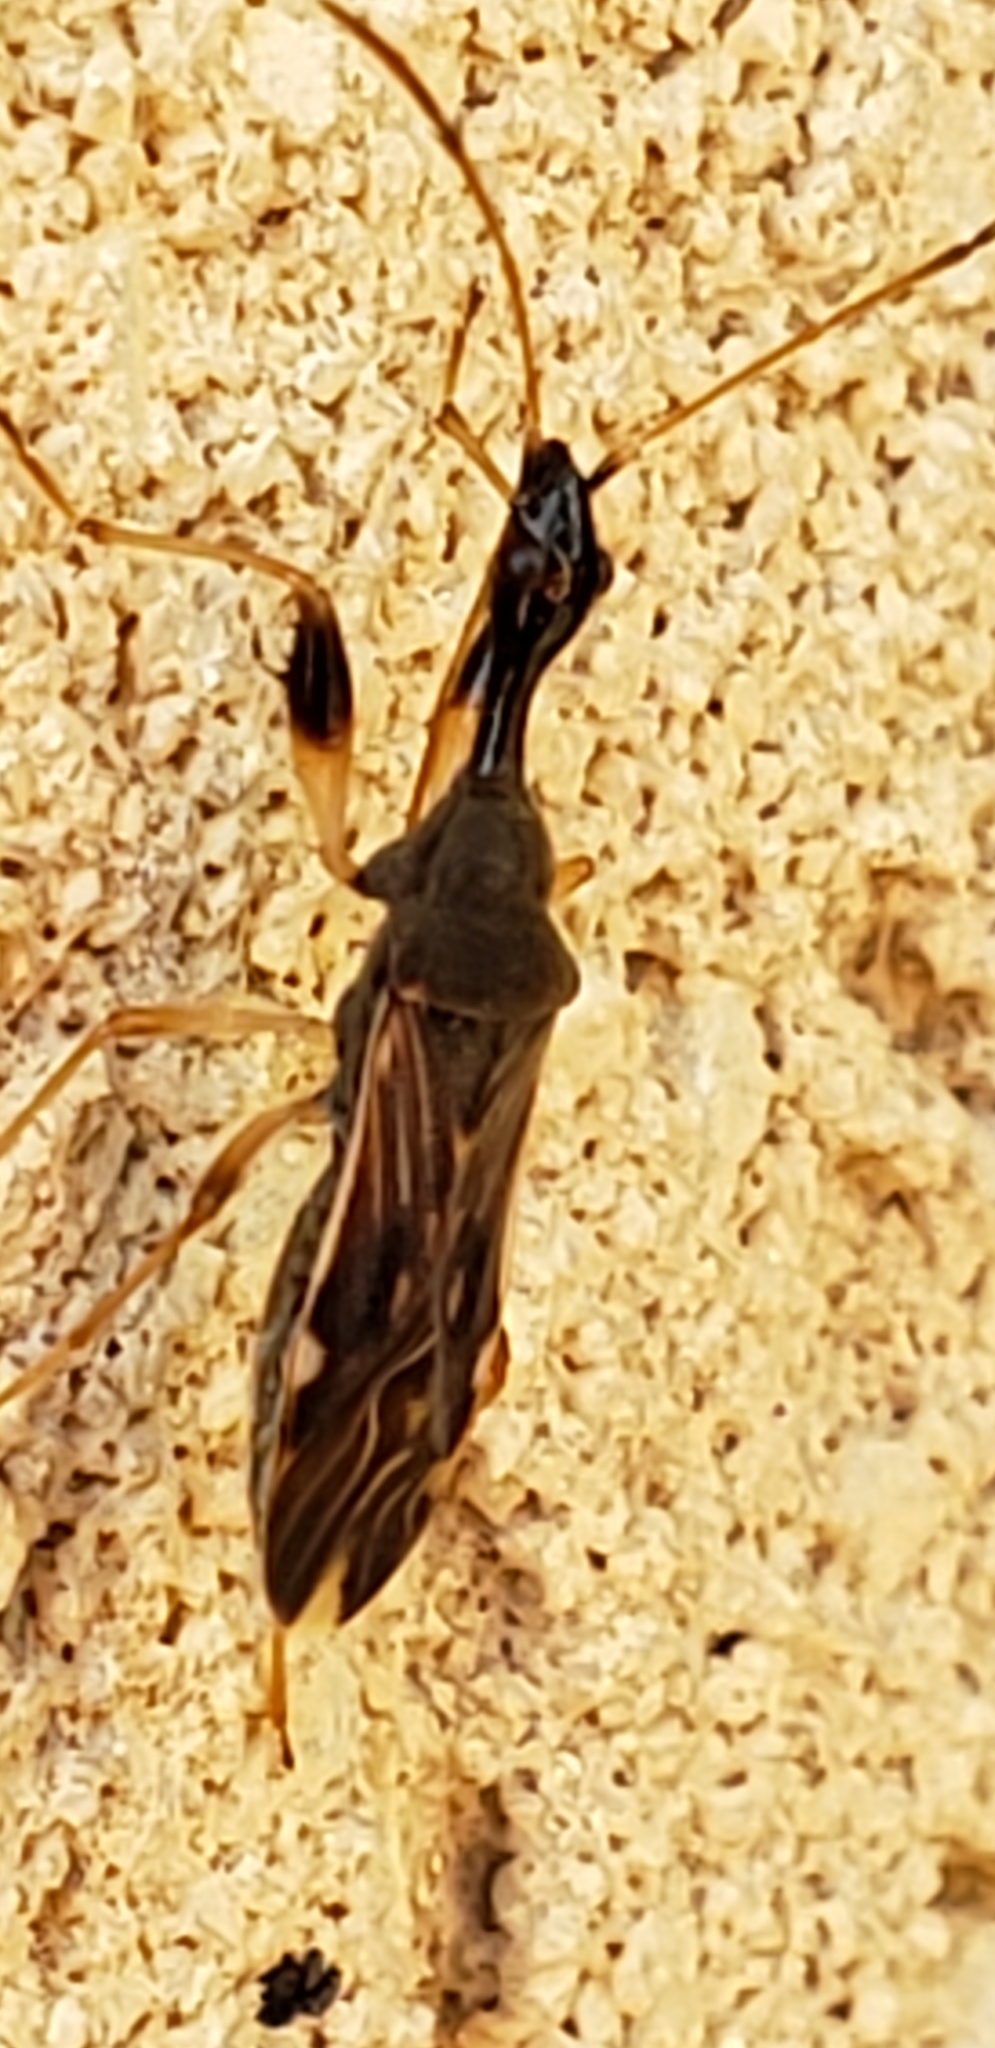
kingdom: Animalia
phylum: Arthropoda
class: Insecta
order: Hemiptera
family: Rhyparochromidae
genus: Myodocha
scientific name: Myodocha serripes
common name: Long-necked seed bug
